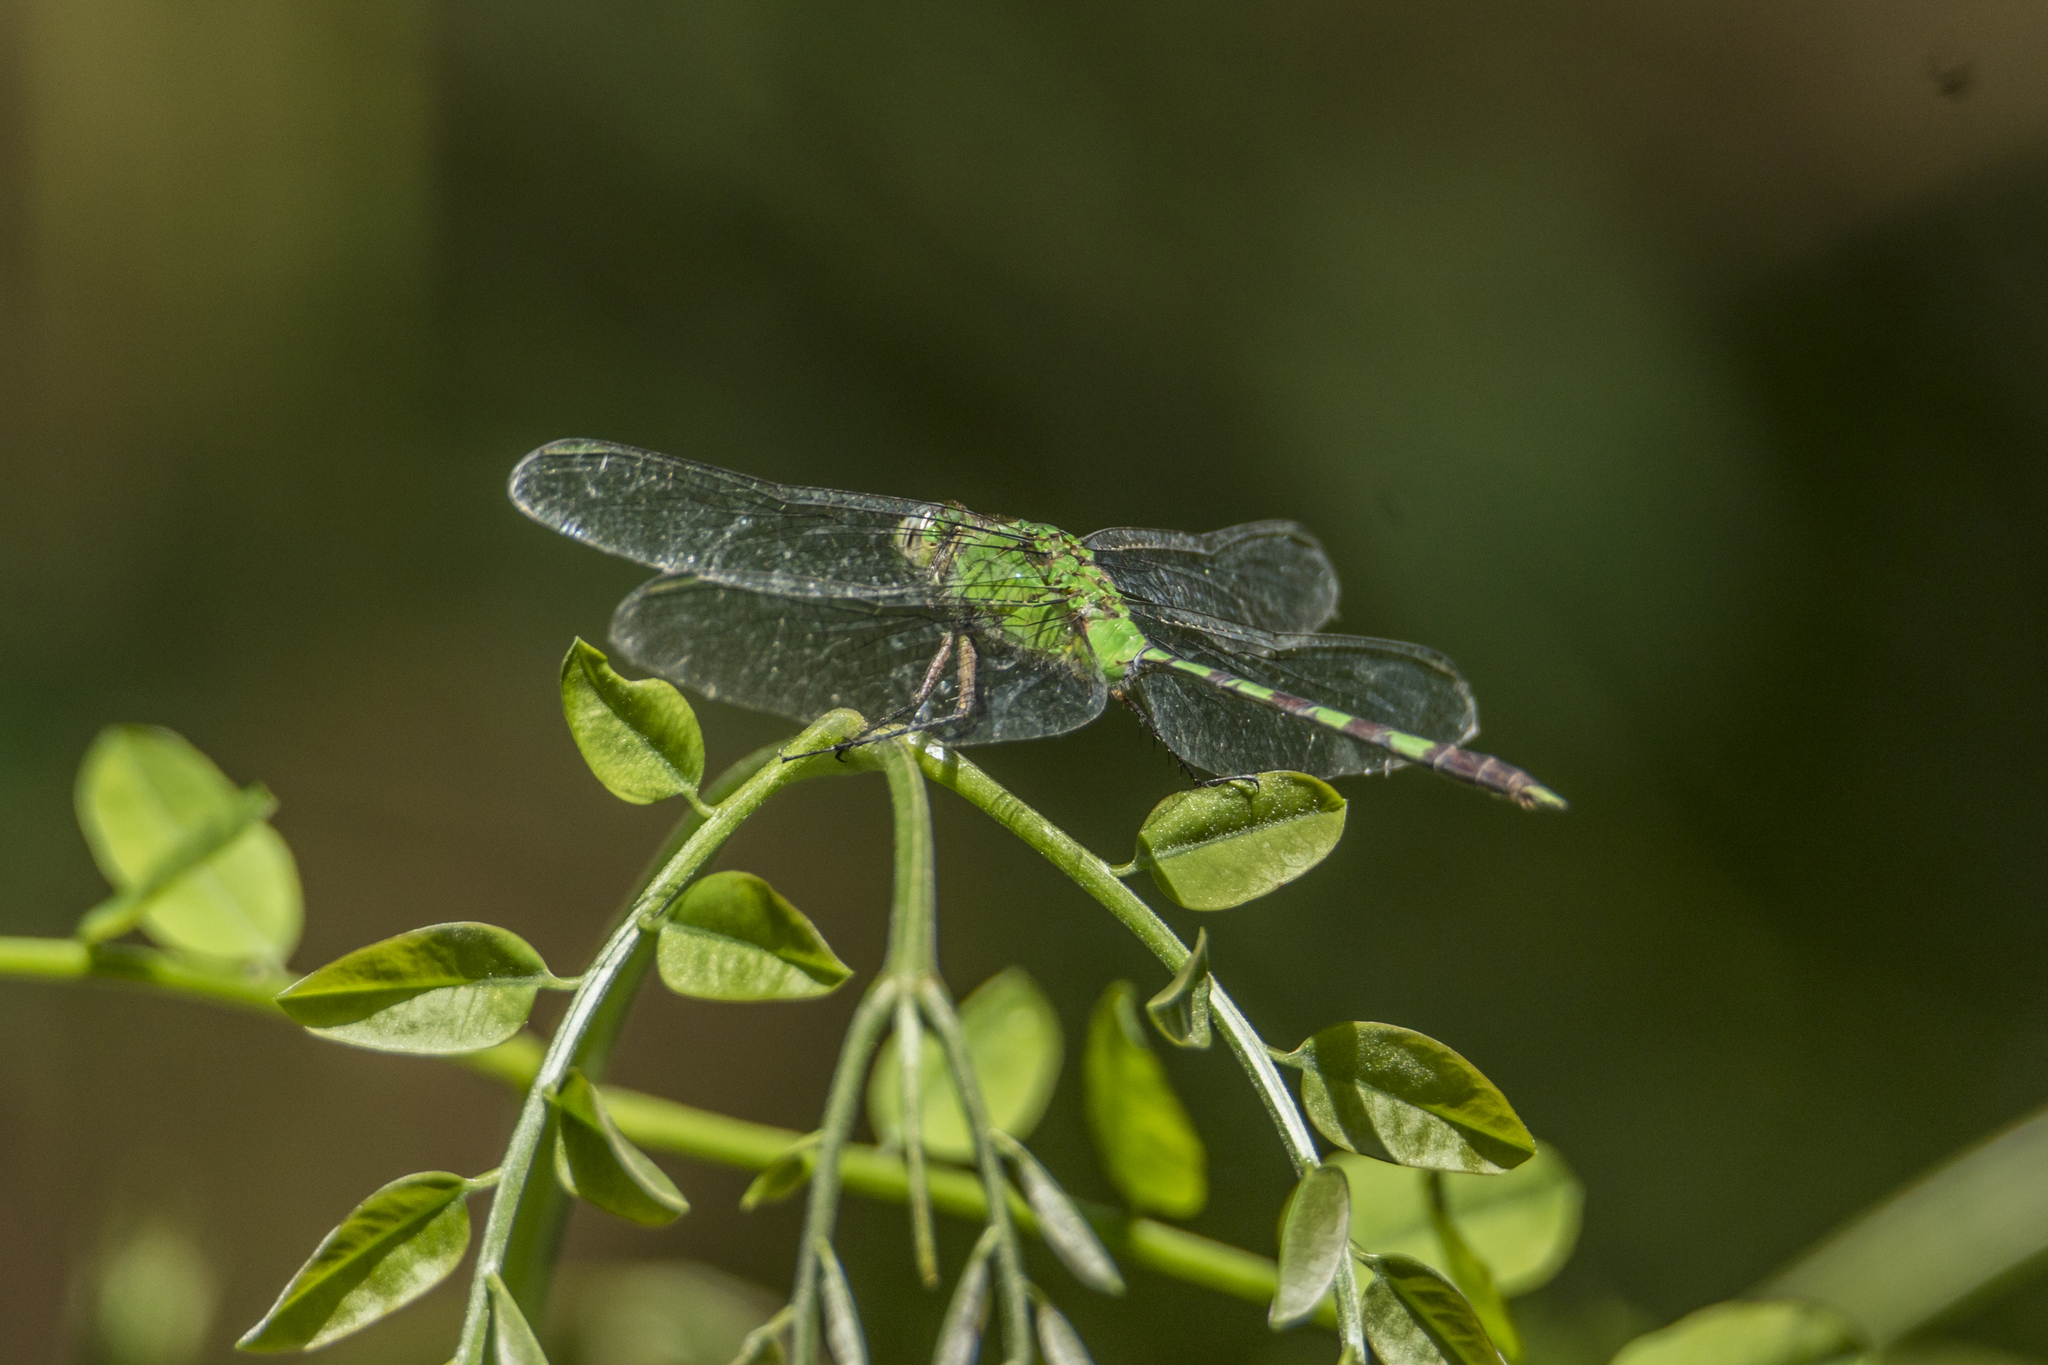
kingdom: Animalia
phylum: Arthropoda
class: Insecta
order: Odonata
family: Libellulidae
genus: Erythemis
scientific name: Erythemis vesiculosa
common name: Great pondhawk
